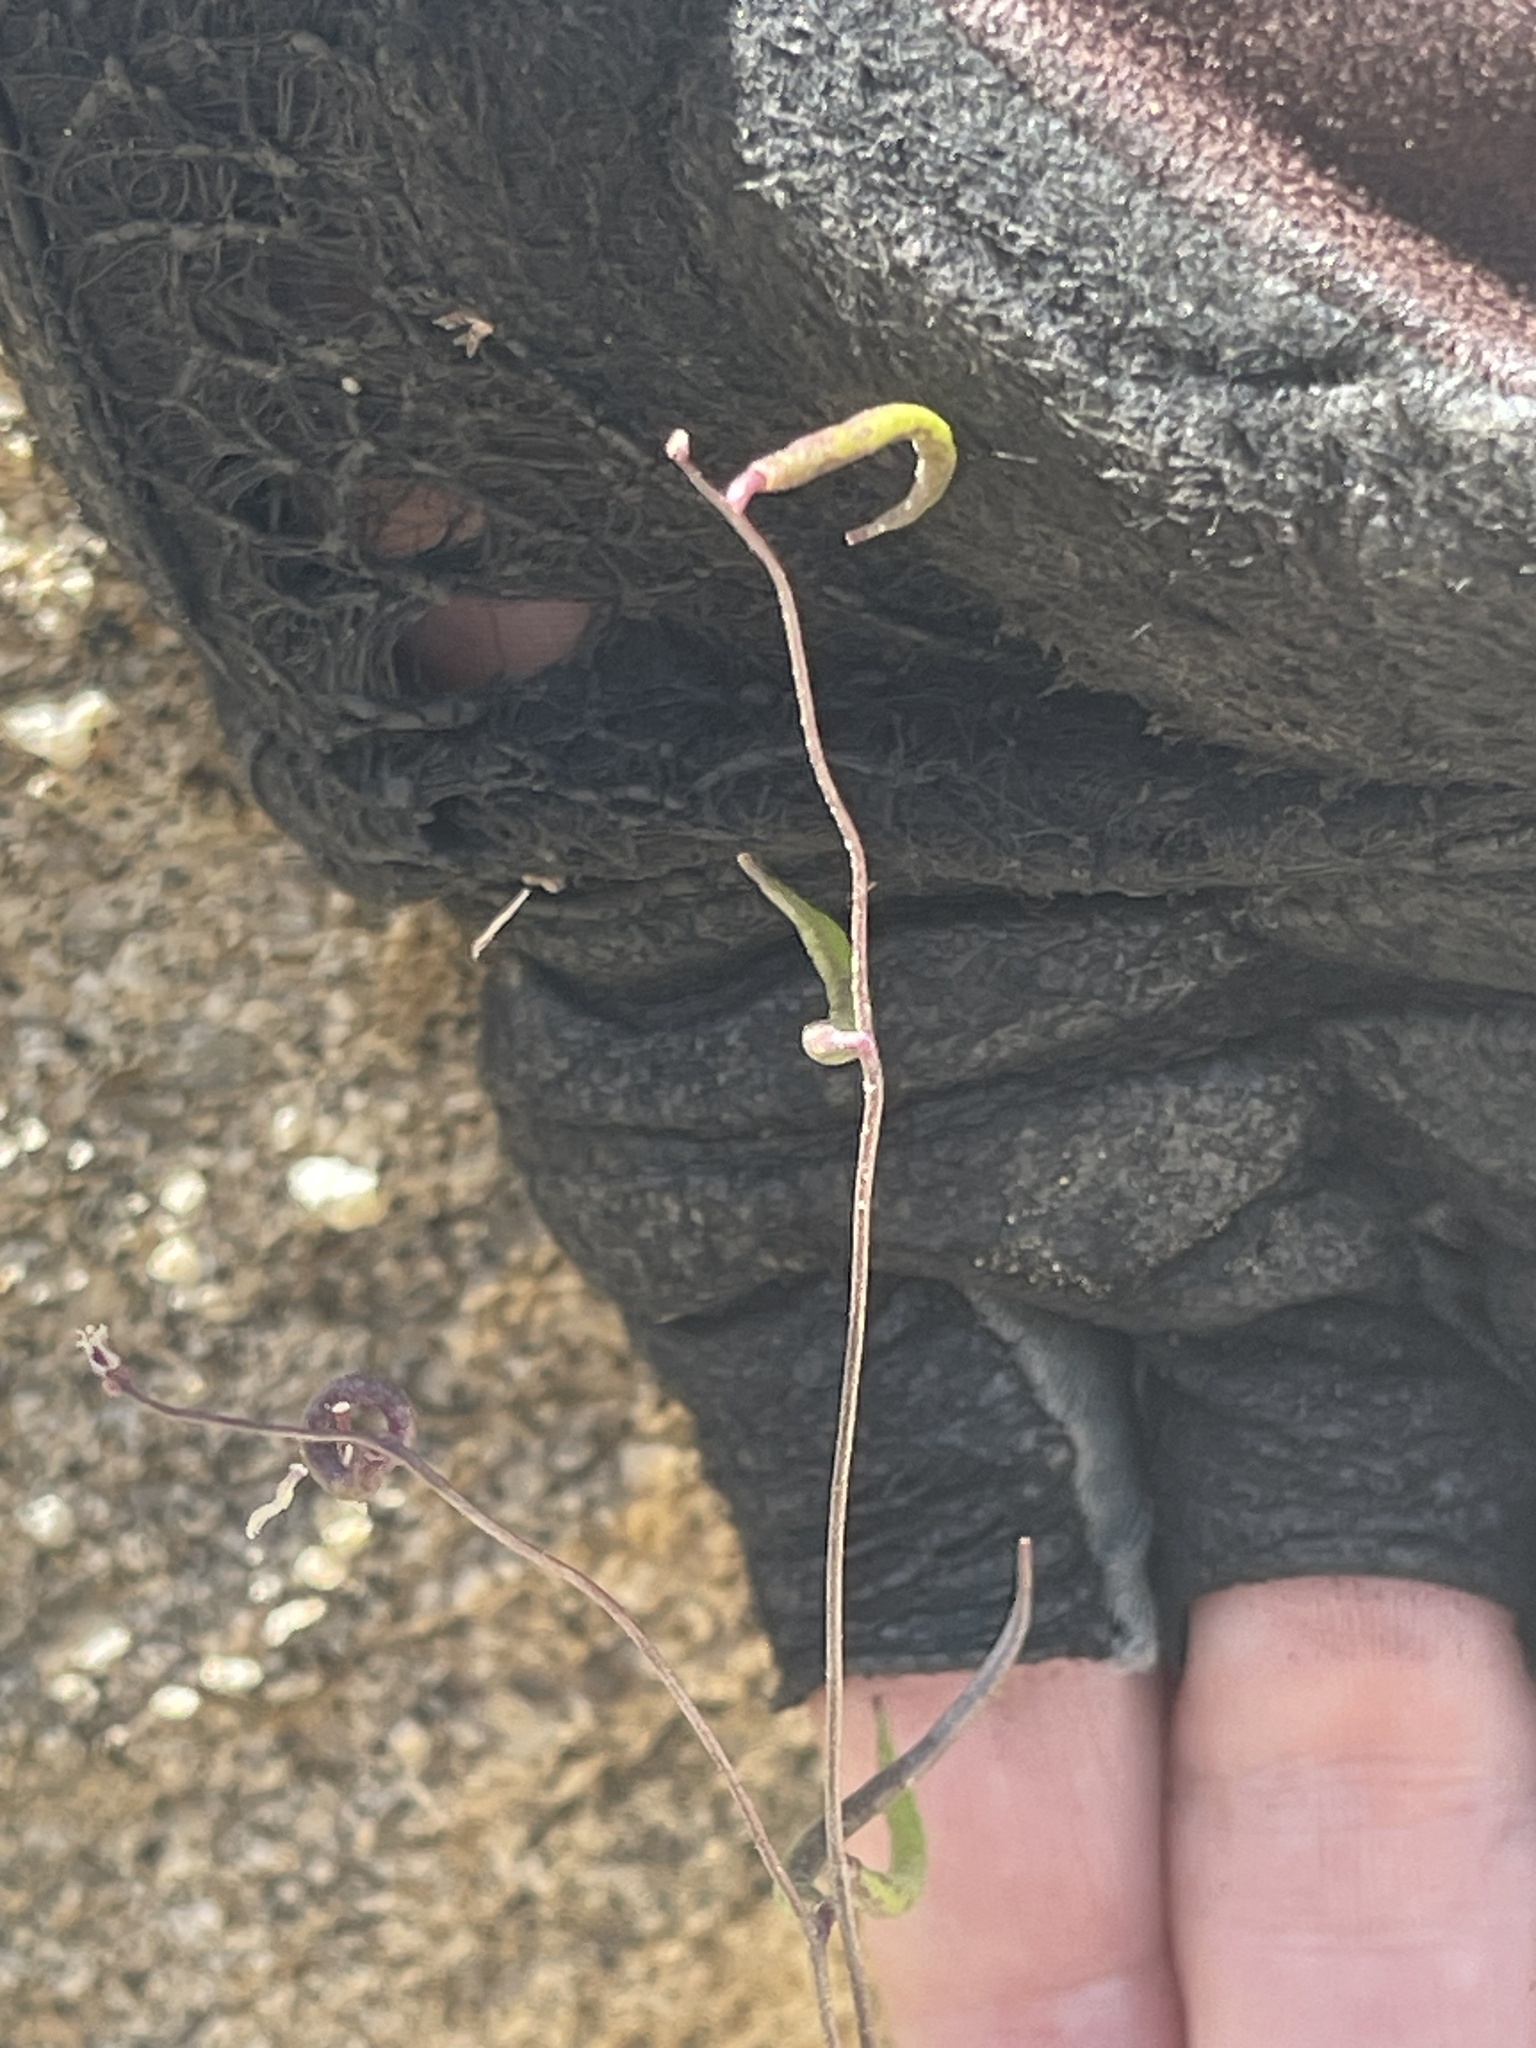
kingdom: Plantae
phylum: Tracheophyta
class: Magnoliopsida
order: Brassicales
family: Brassicaceae
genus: Streptanthus
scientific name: Streptanthus cooperi
